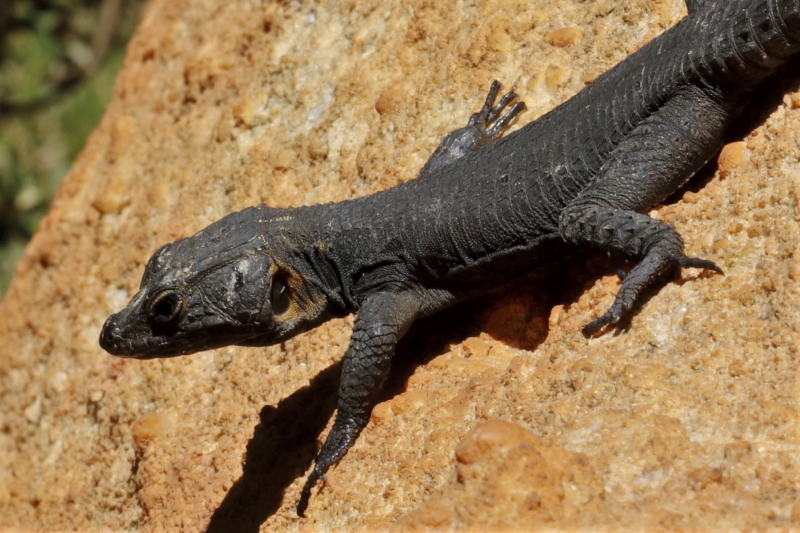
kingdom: Animalia
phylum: Chordata
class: Squamata
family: Cordylidae
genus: Hemicordylus
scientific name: Hemicordylus capensis
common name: Graceful crag lizard
